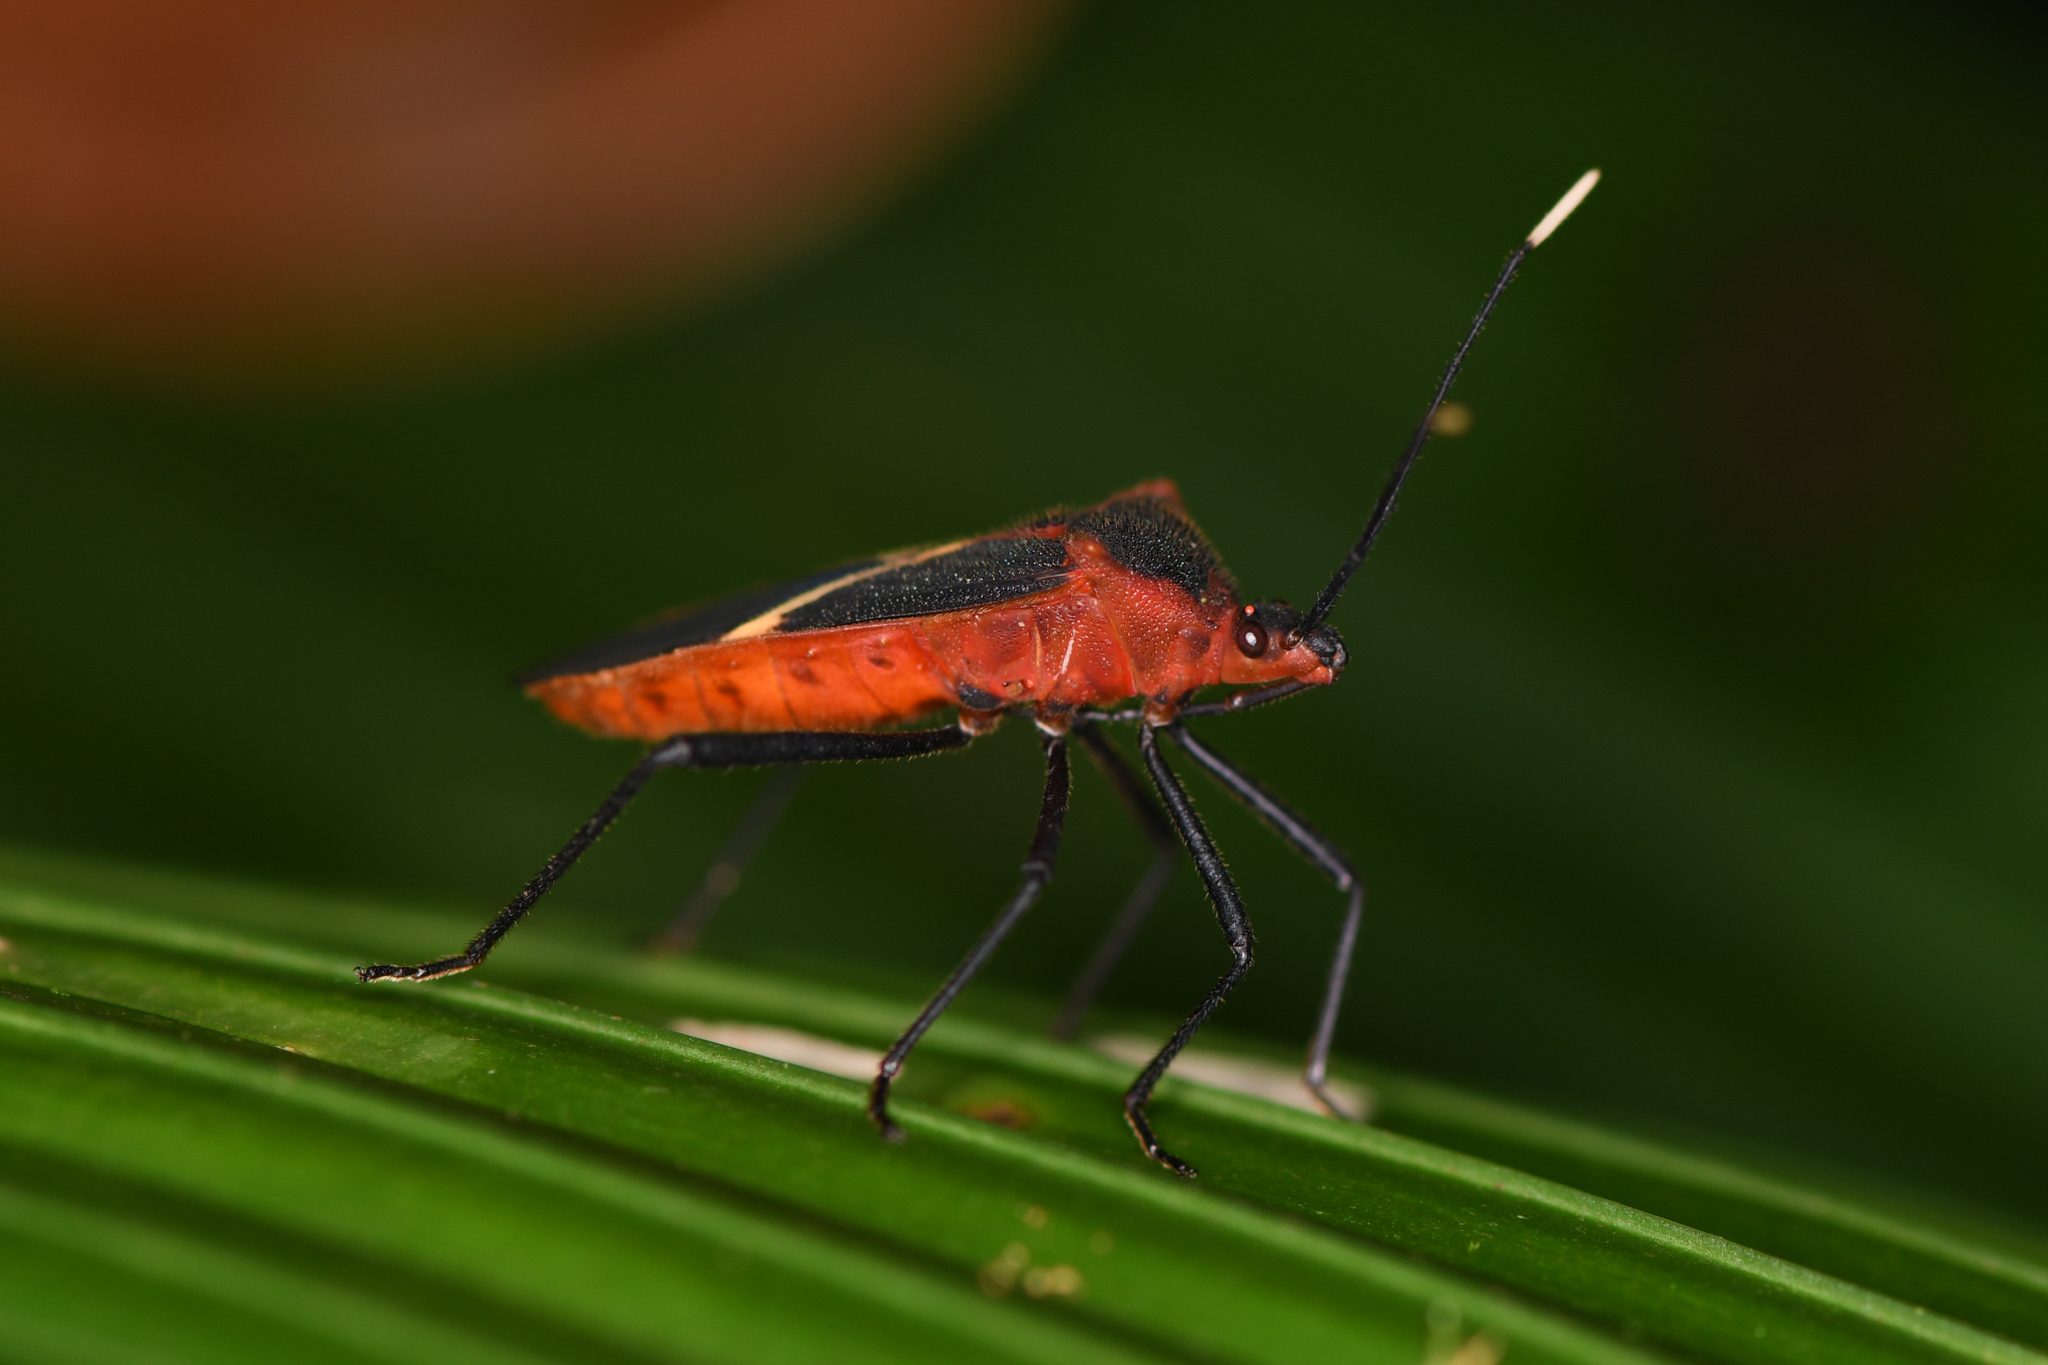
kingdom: Animalia
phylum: Arthropoda
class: Insecta
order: Hemiptera
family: Coreidae
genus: Leptoscelis
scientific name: Leptoscelis tricolor
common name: Heliconia bug
